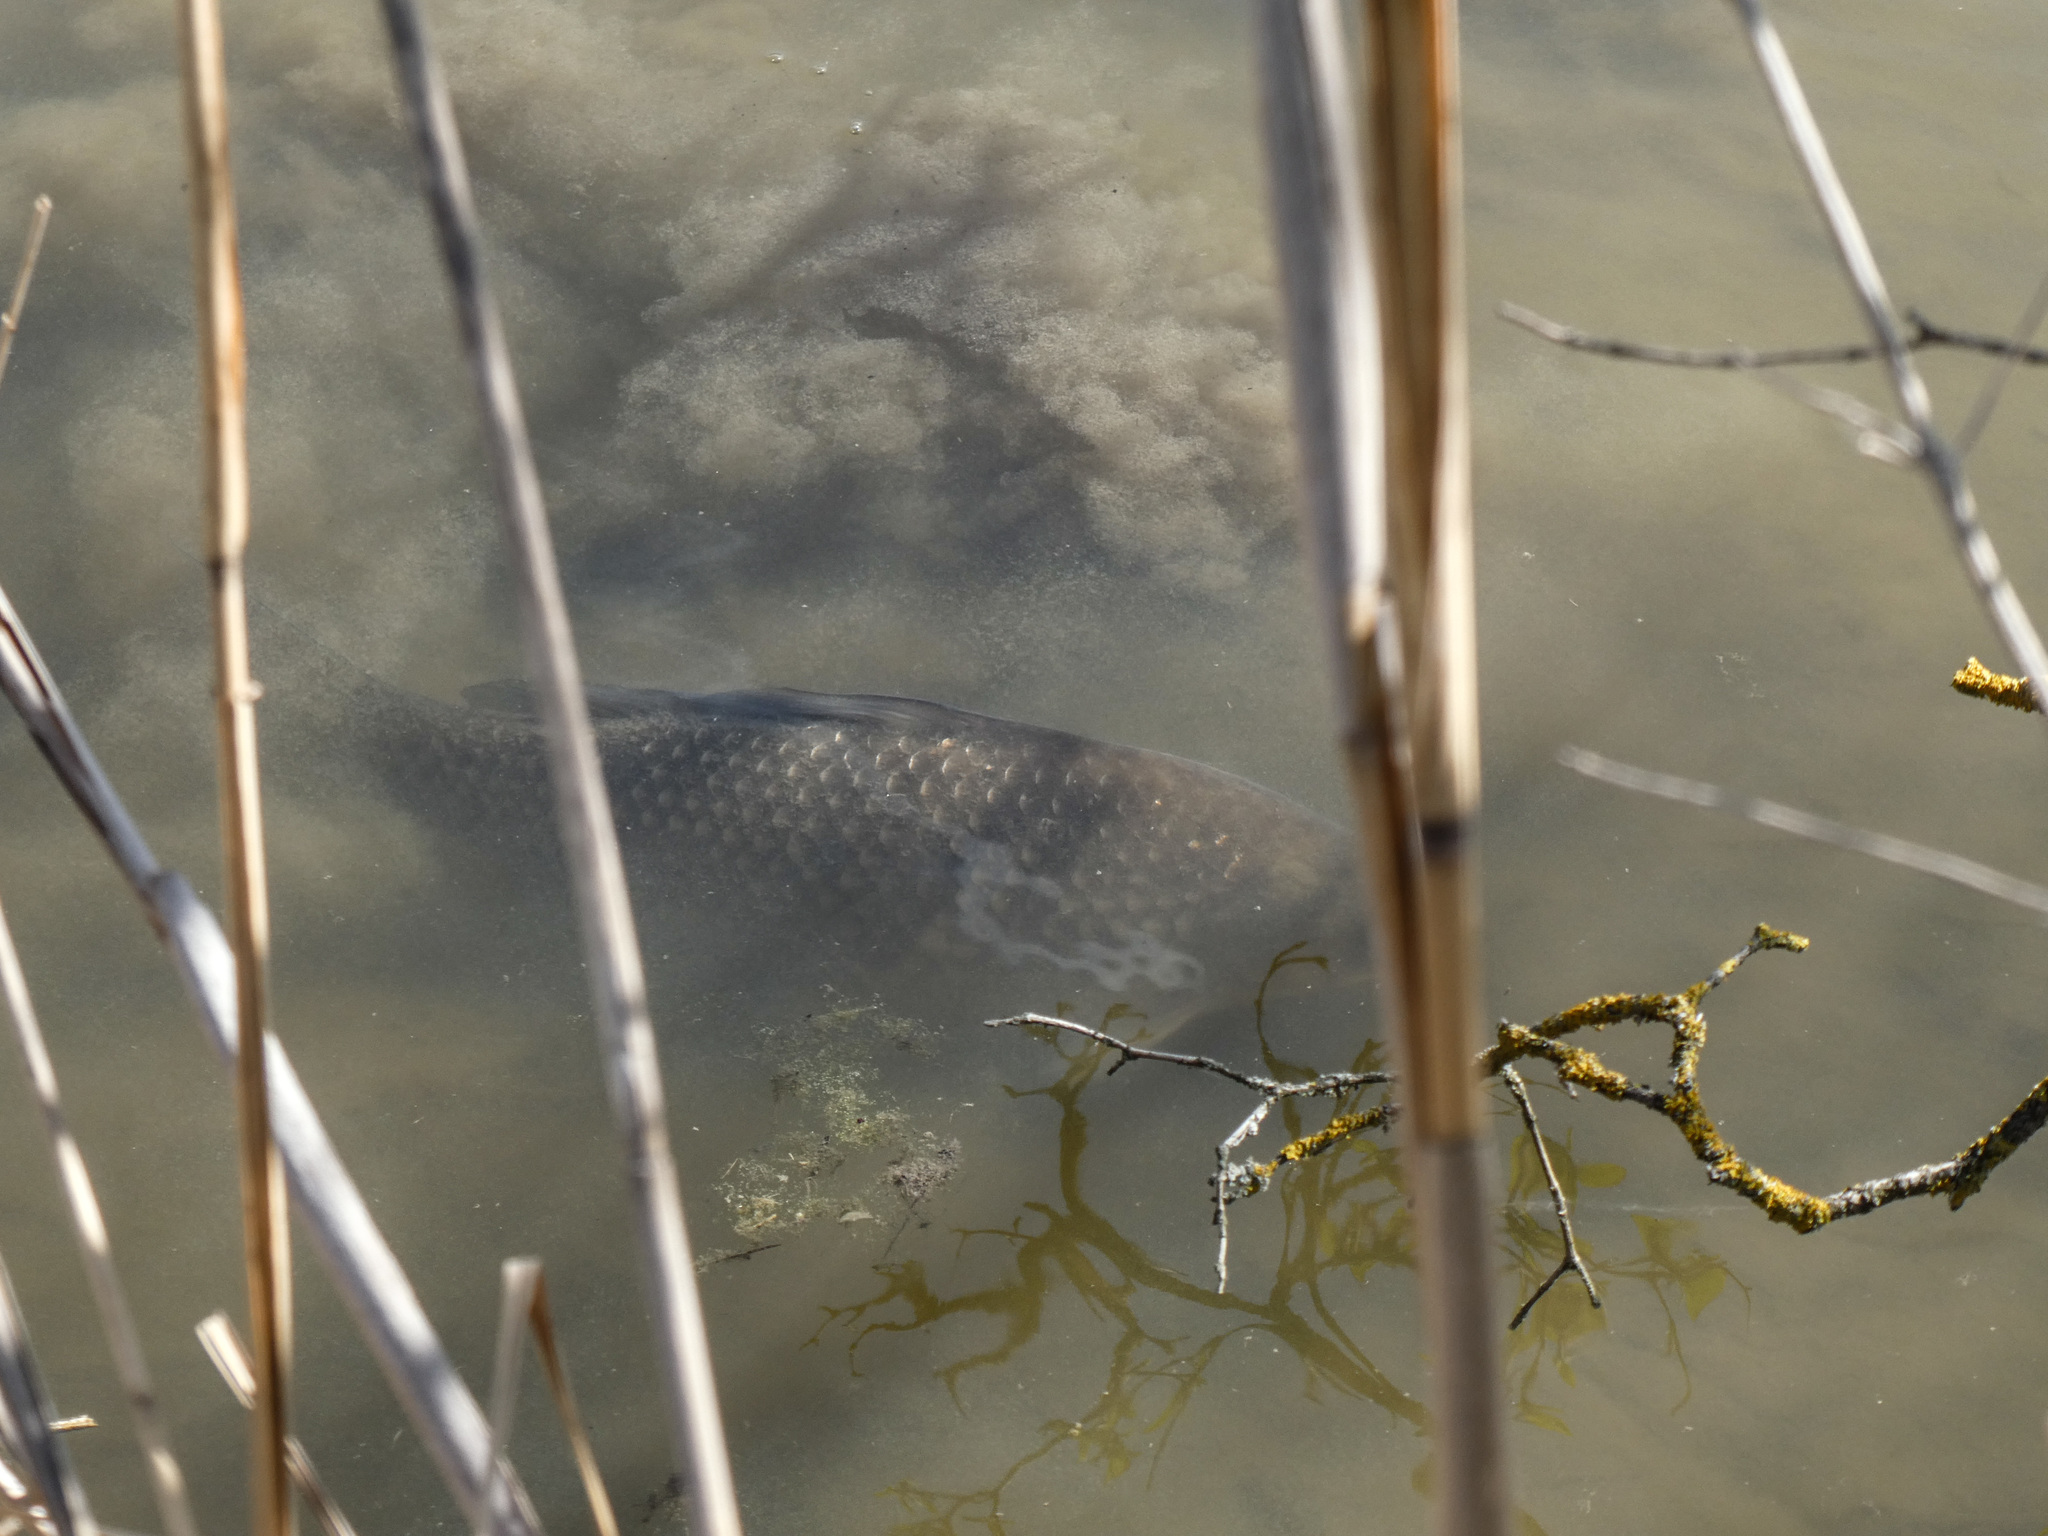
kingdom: Animalia
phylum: Chordata
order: Cypriniformes
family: Cyprinidae
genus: Cyprinus
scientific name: Cyprinus carpio
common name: Common carp
